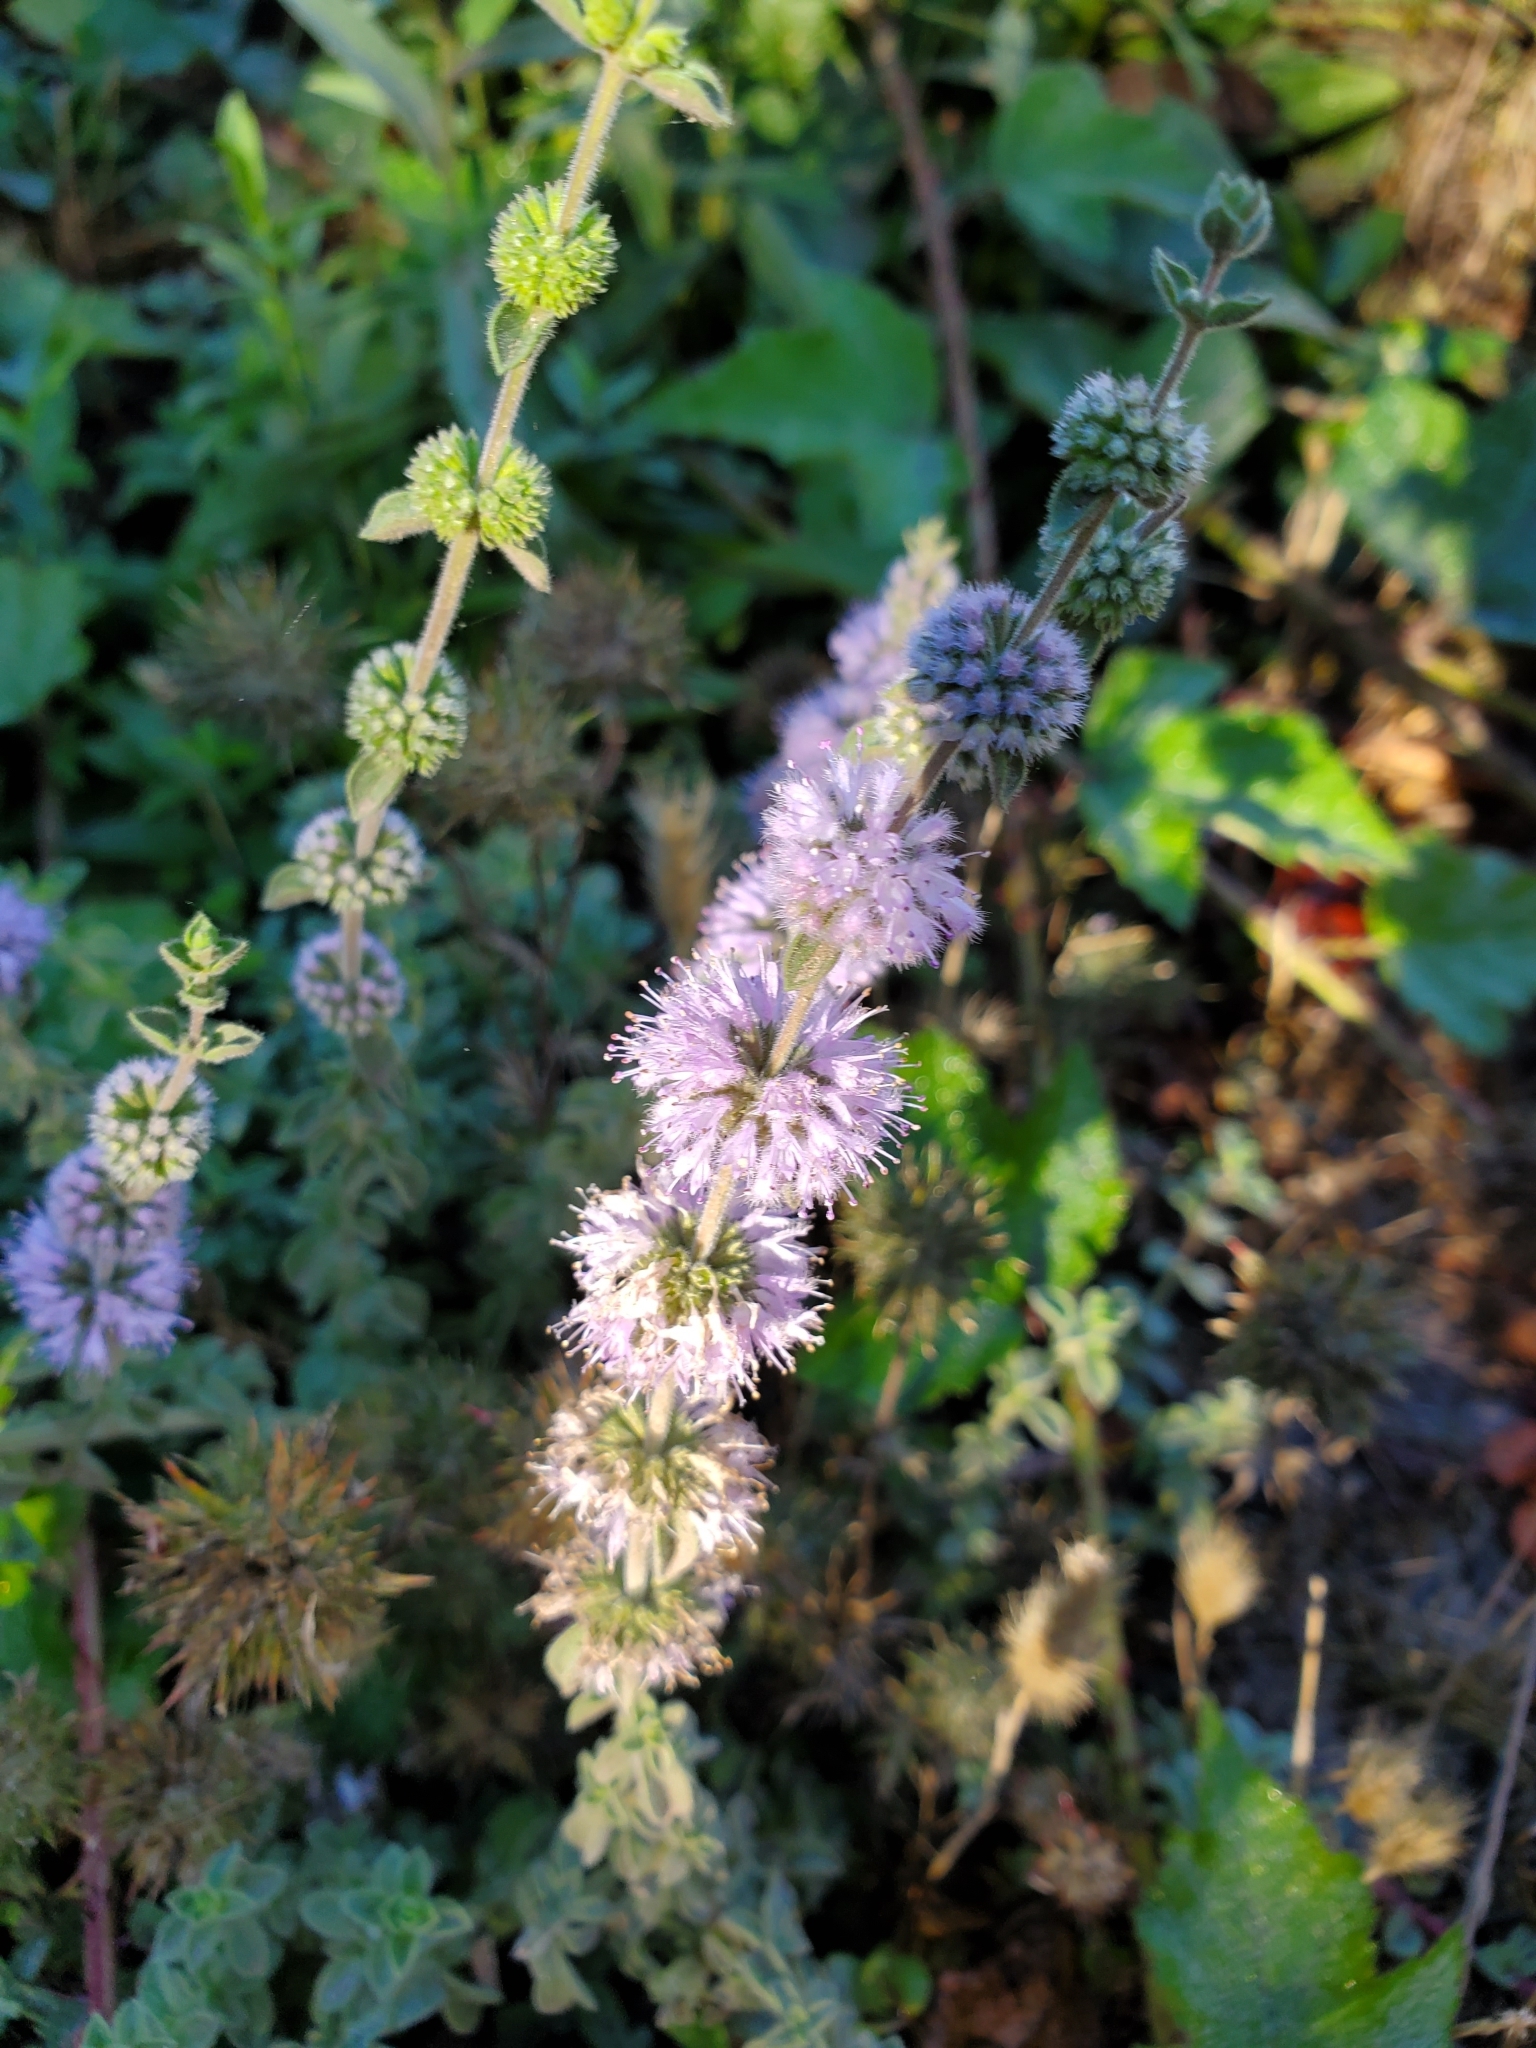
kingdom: Plantae
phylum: Tracheophyta
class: Magnoliopsida
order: Lamiales
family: Lamiaceae
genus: Mentha
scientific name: Mentha pulegium
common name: Pennyroyal
